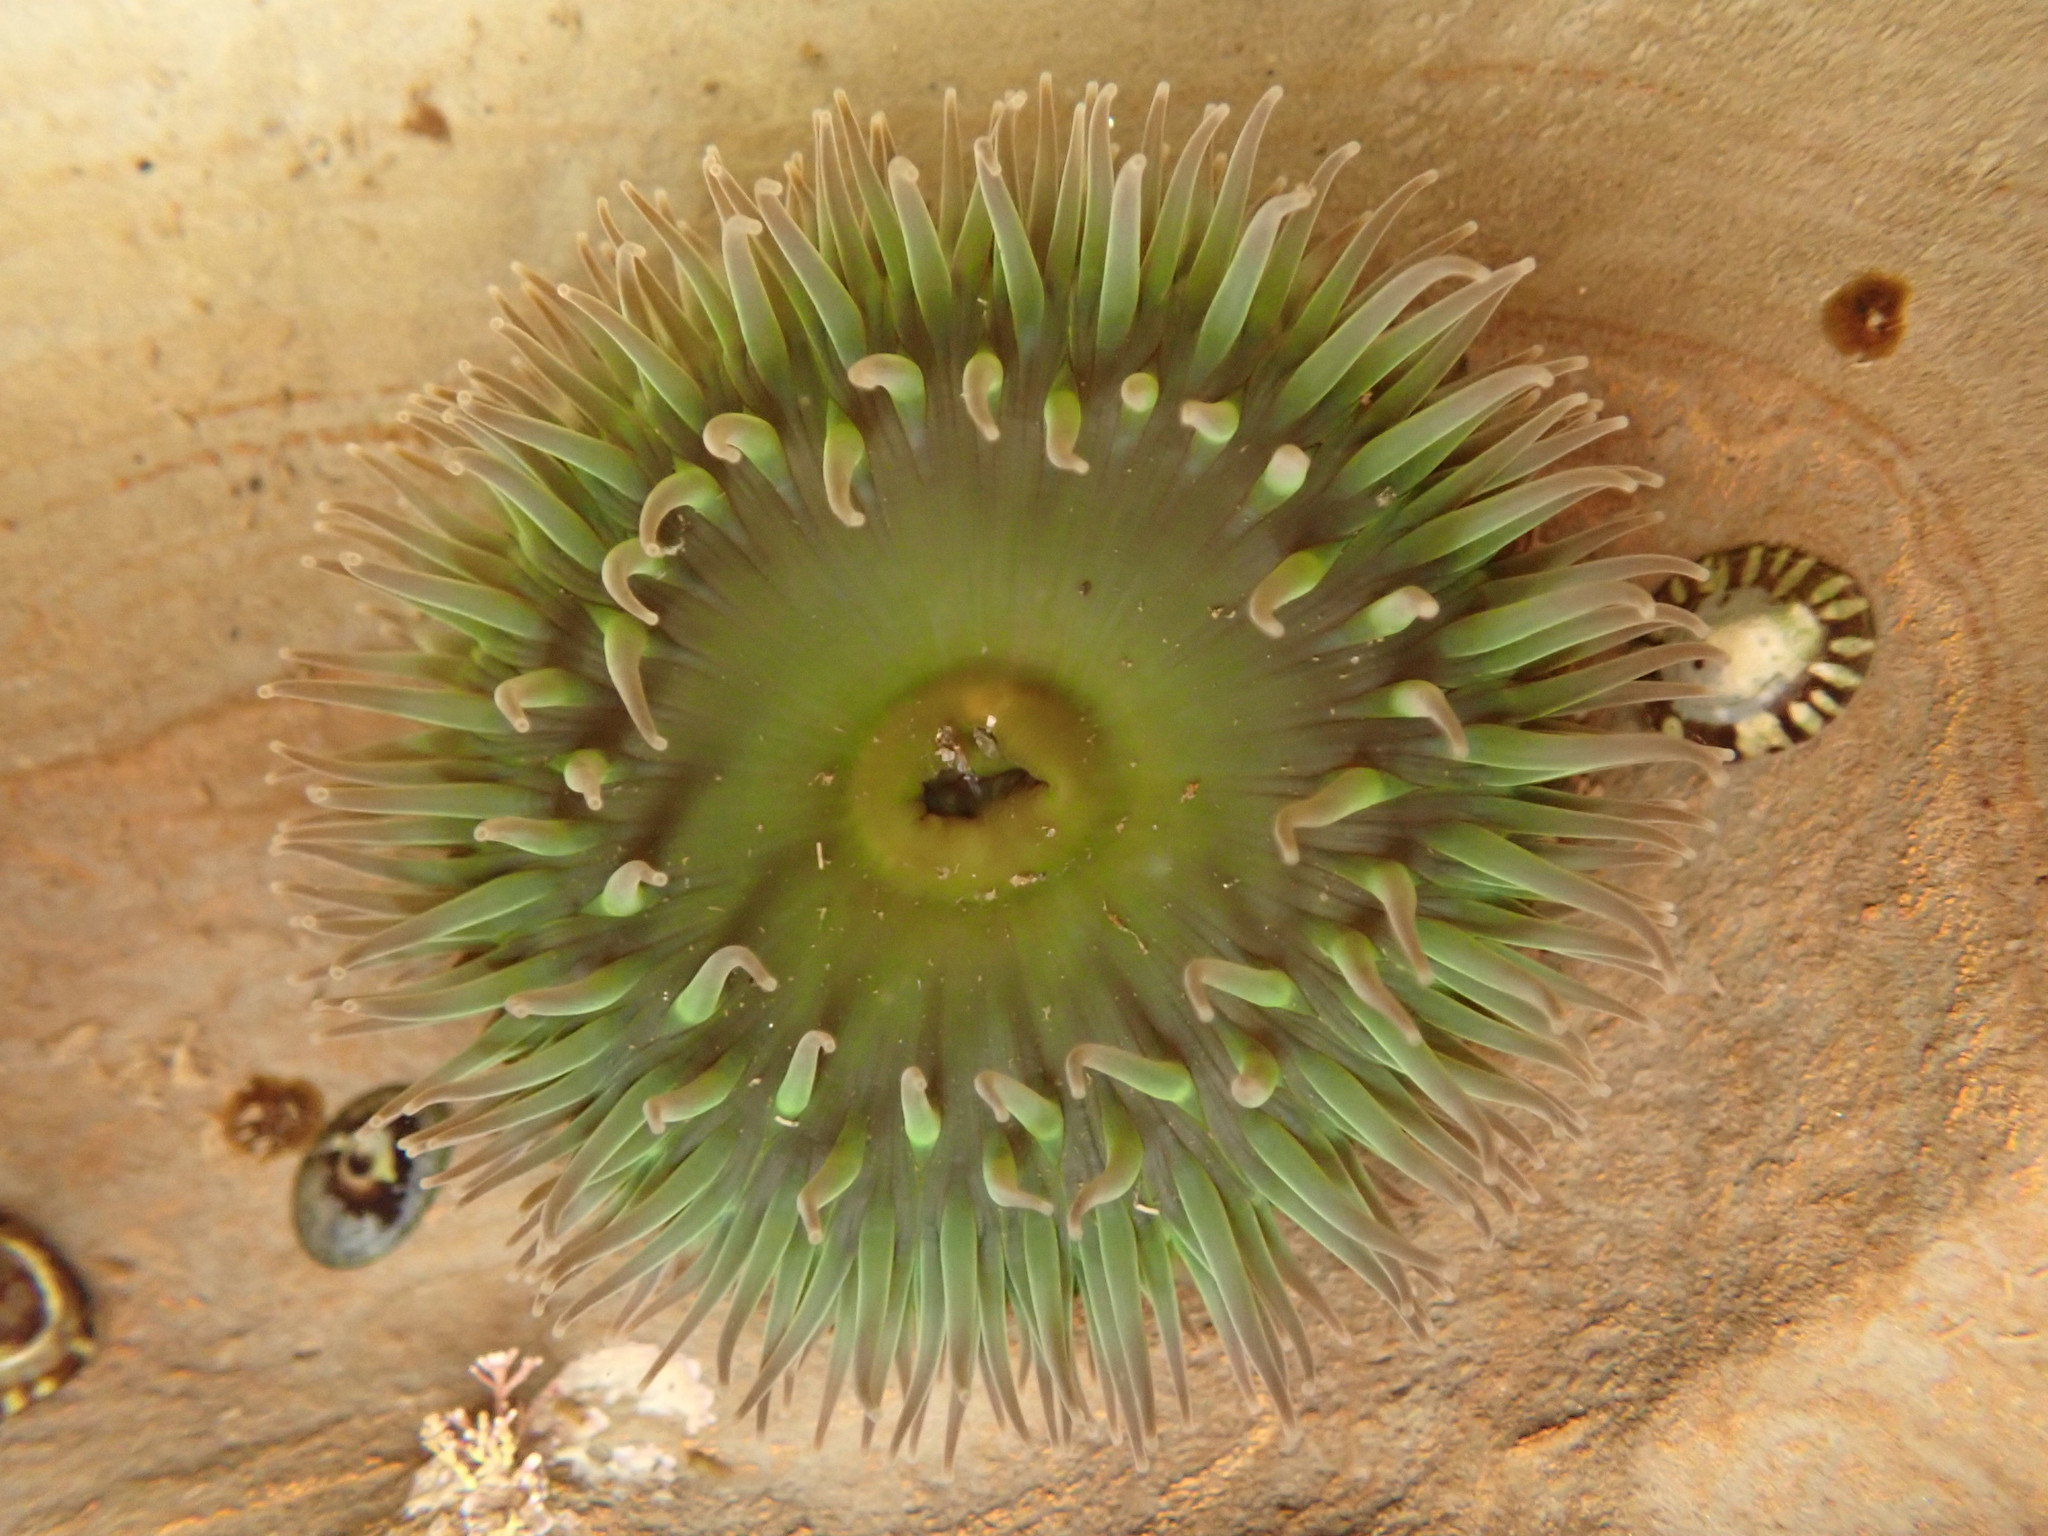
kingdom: Animalia
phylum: Cnidaria
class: Anthozoa
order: Actiniaria
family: Actiniidae
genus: Anthopleura
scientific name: Anthopleura xanthogrammica
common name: Giant green anemone
